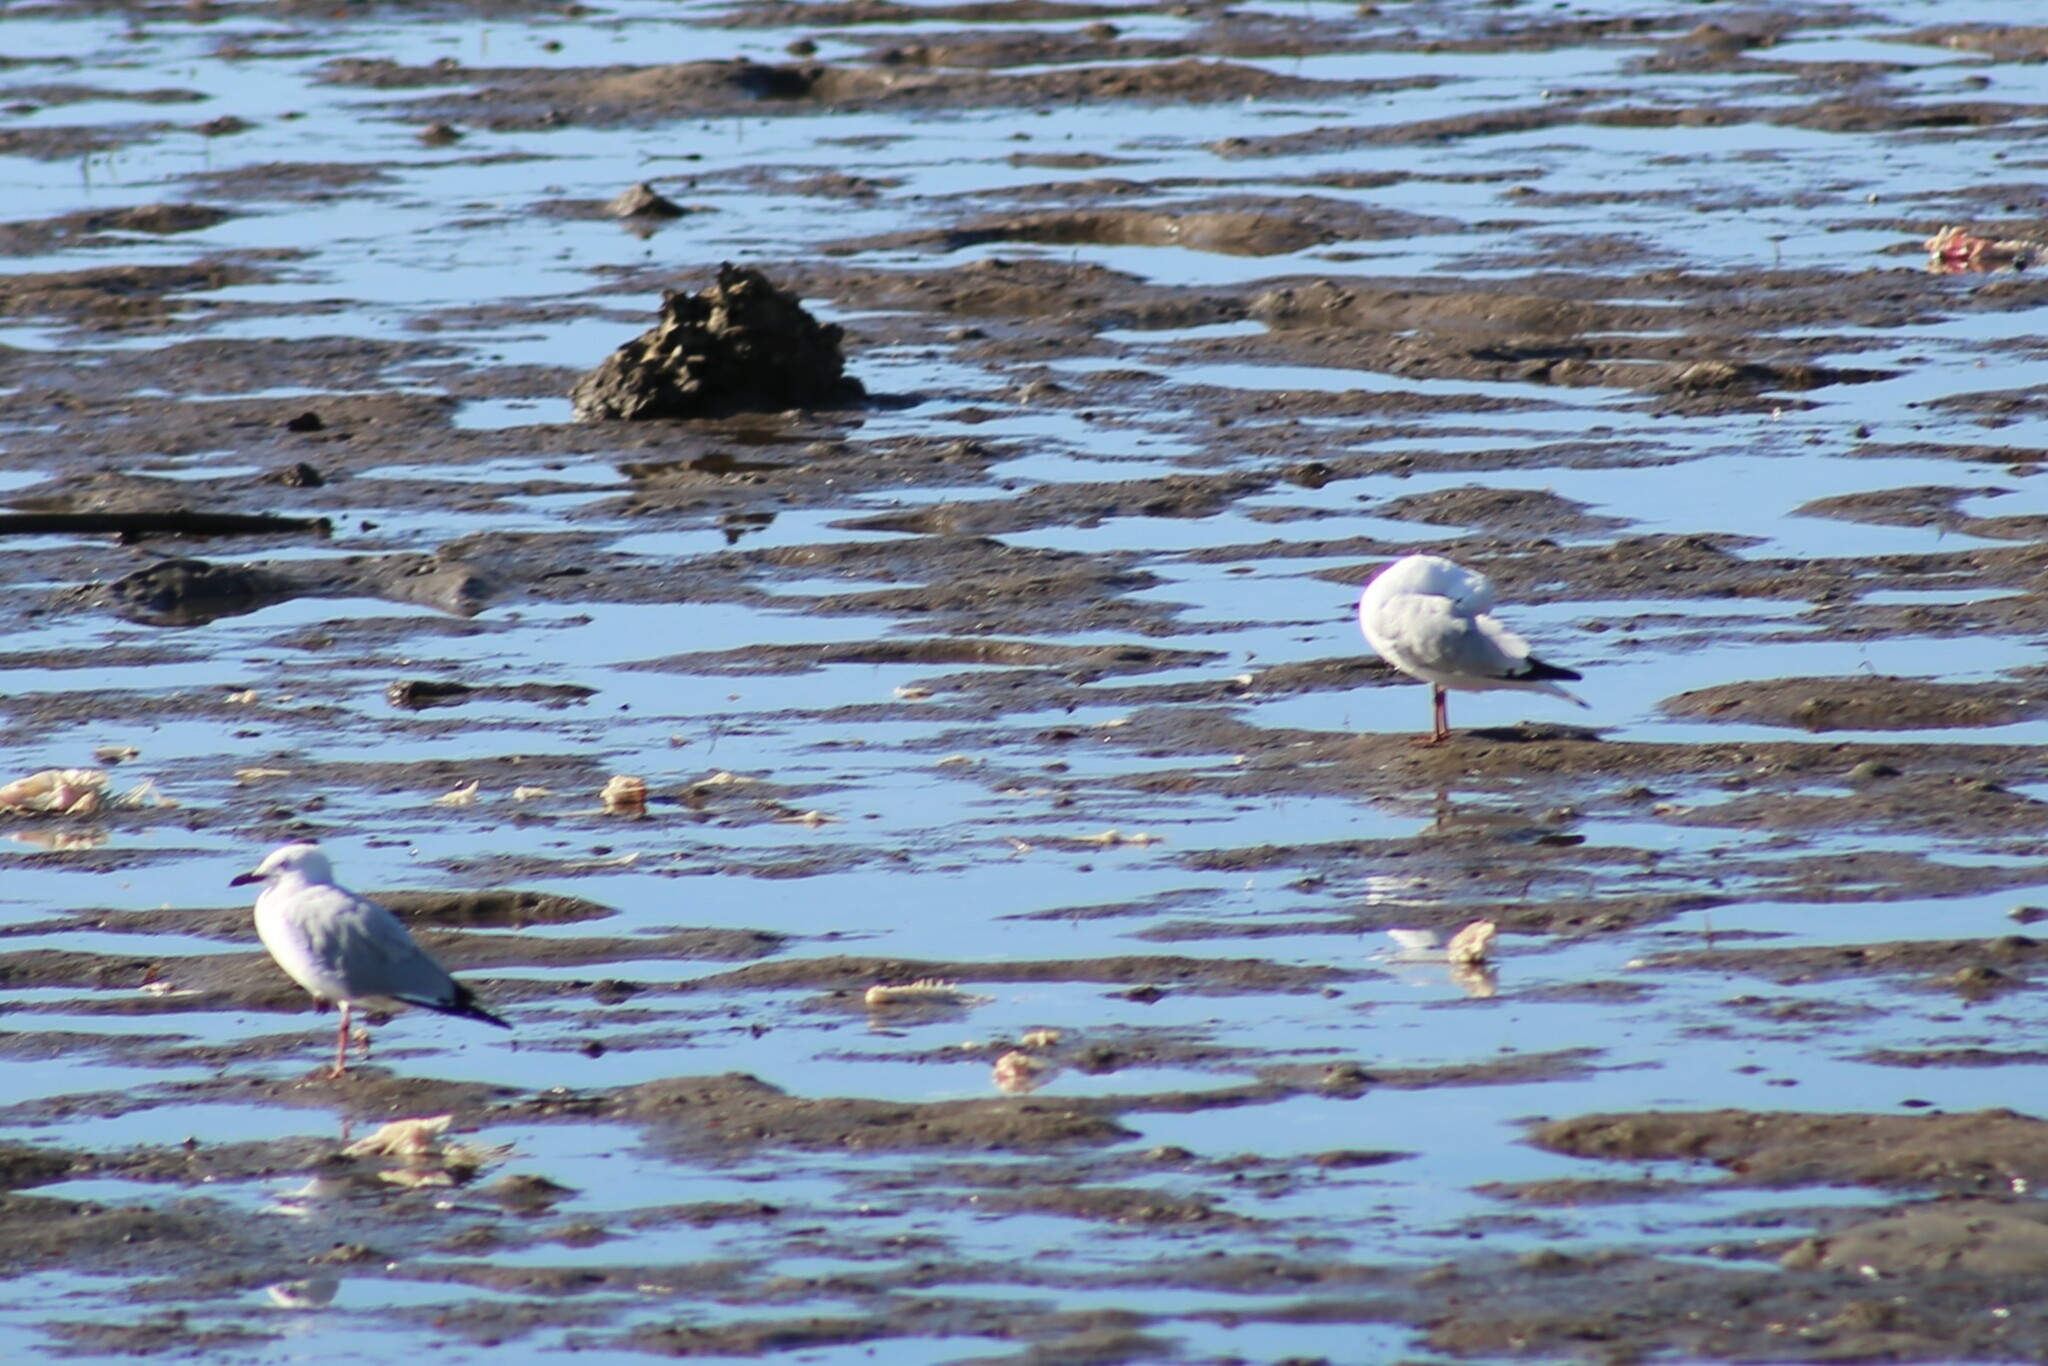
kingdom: Animalia
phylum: Chordata
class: Aves
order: Charadriiformes
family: Laridae
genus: Chroicocephalus
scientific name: Chroicocephalus novaehollandiae
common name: Silver gull
